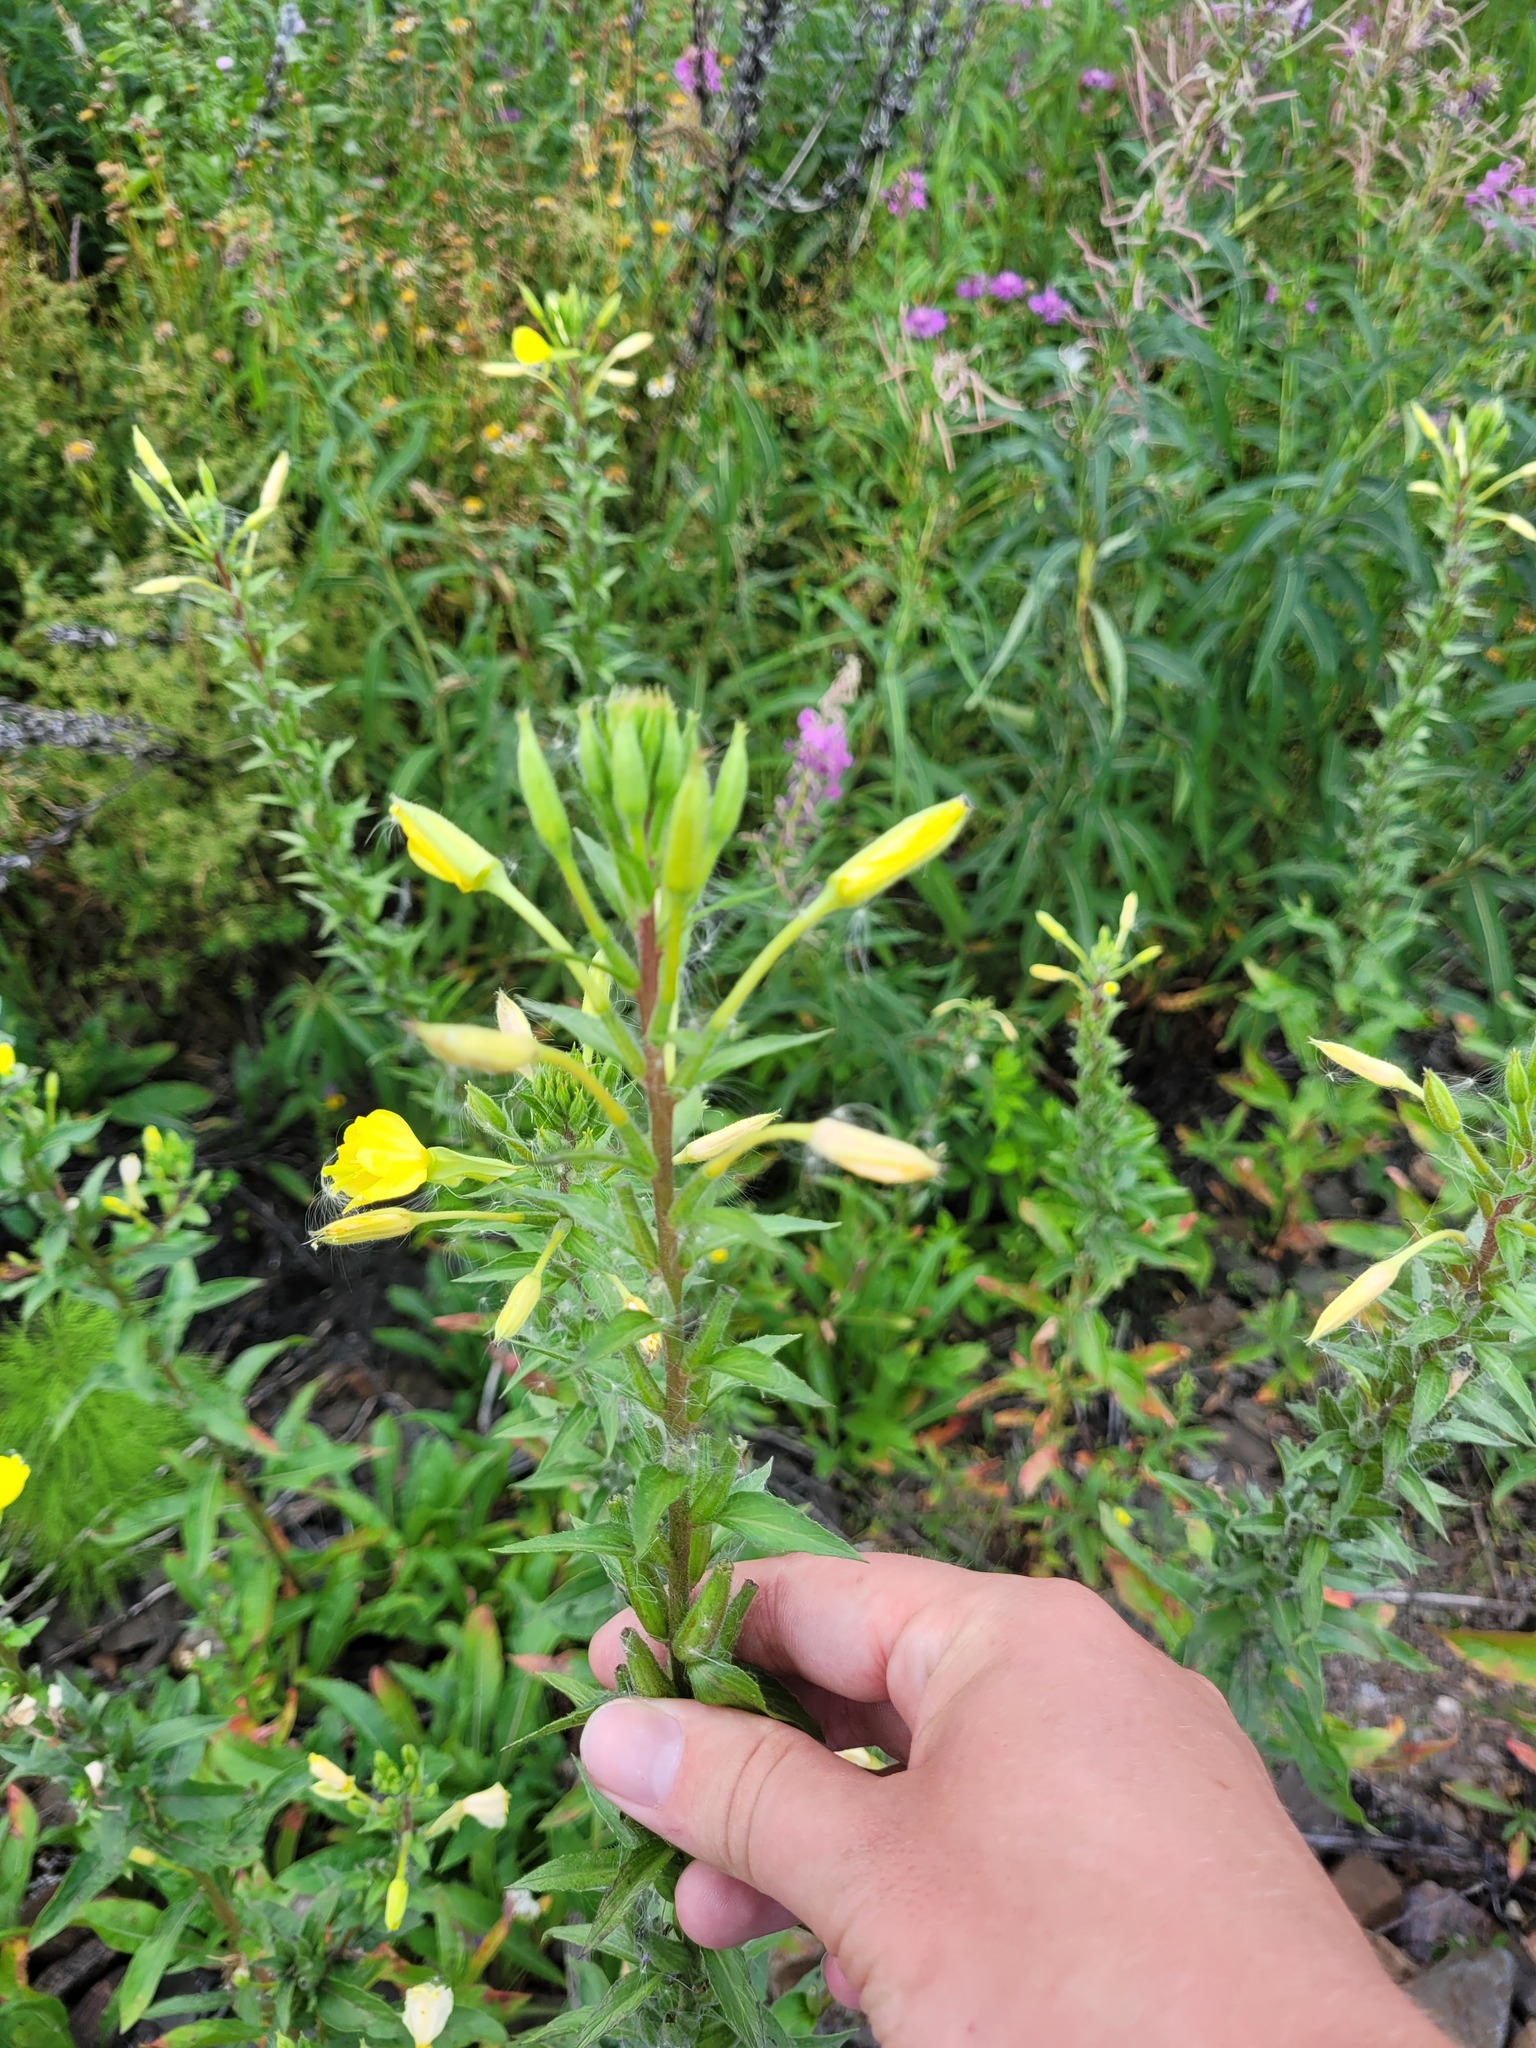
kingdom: Plantae
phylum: Tracheophyta
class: Magnoliopsida
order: Myrtales
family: Onagraceae
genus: Oenothera
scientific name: Oenothera rubricaulis
